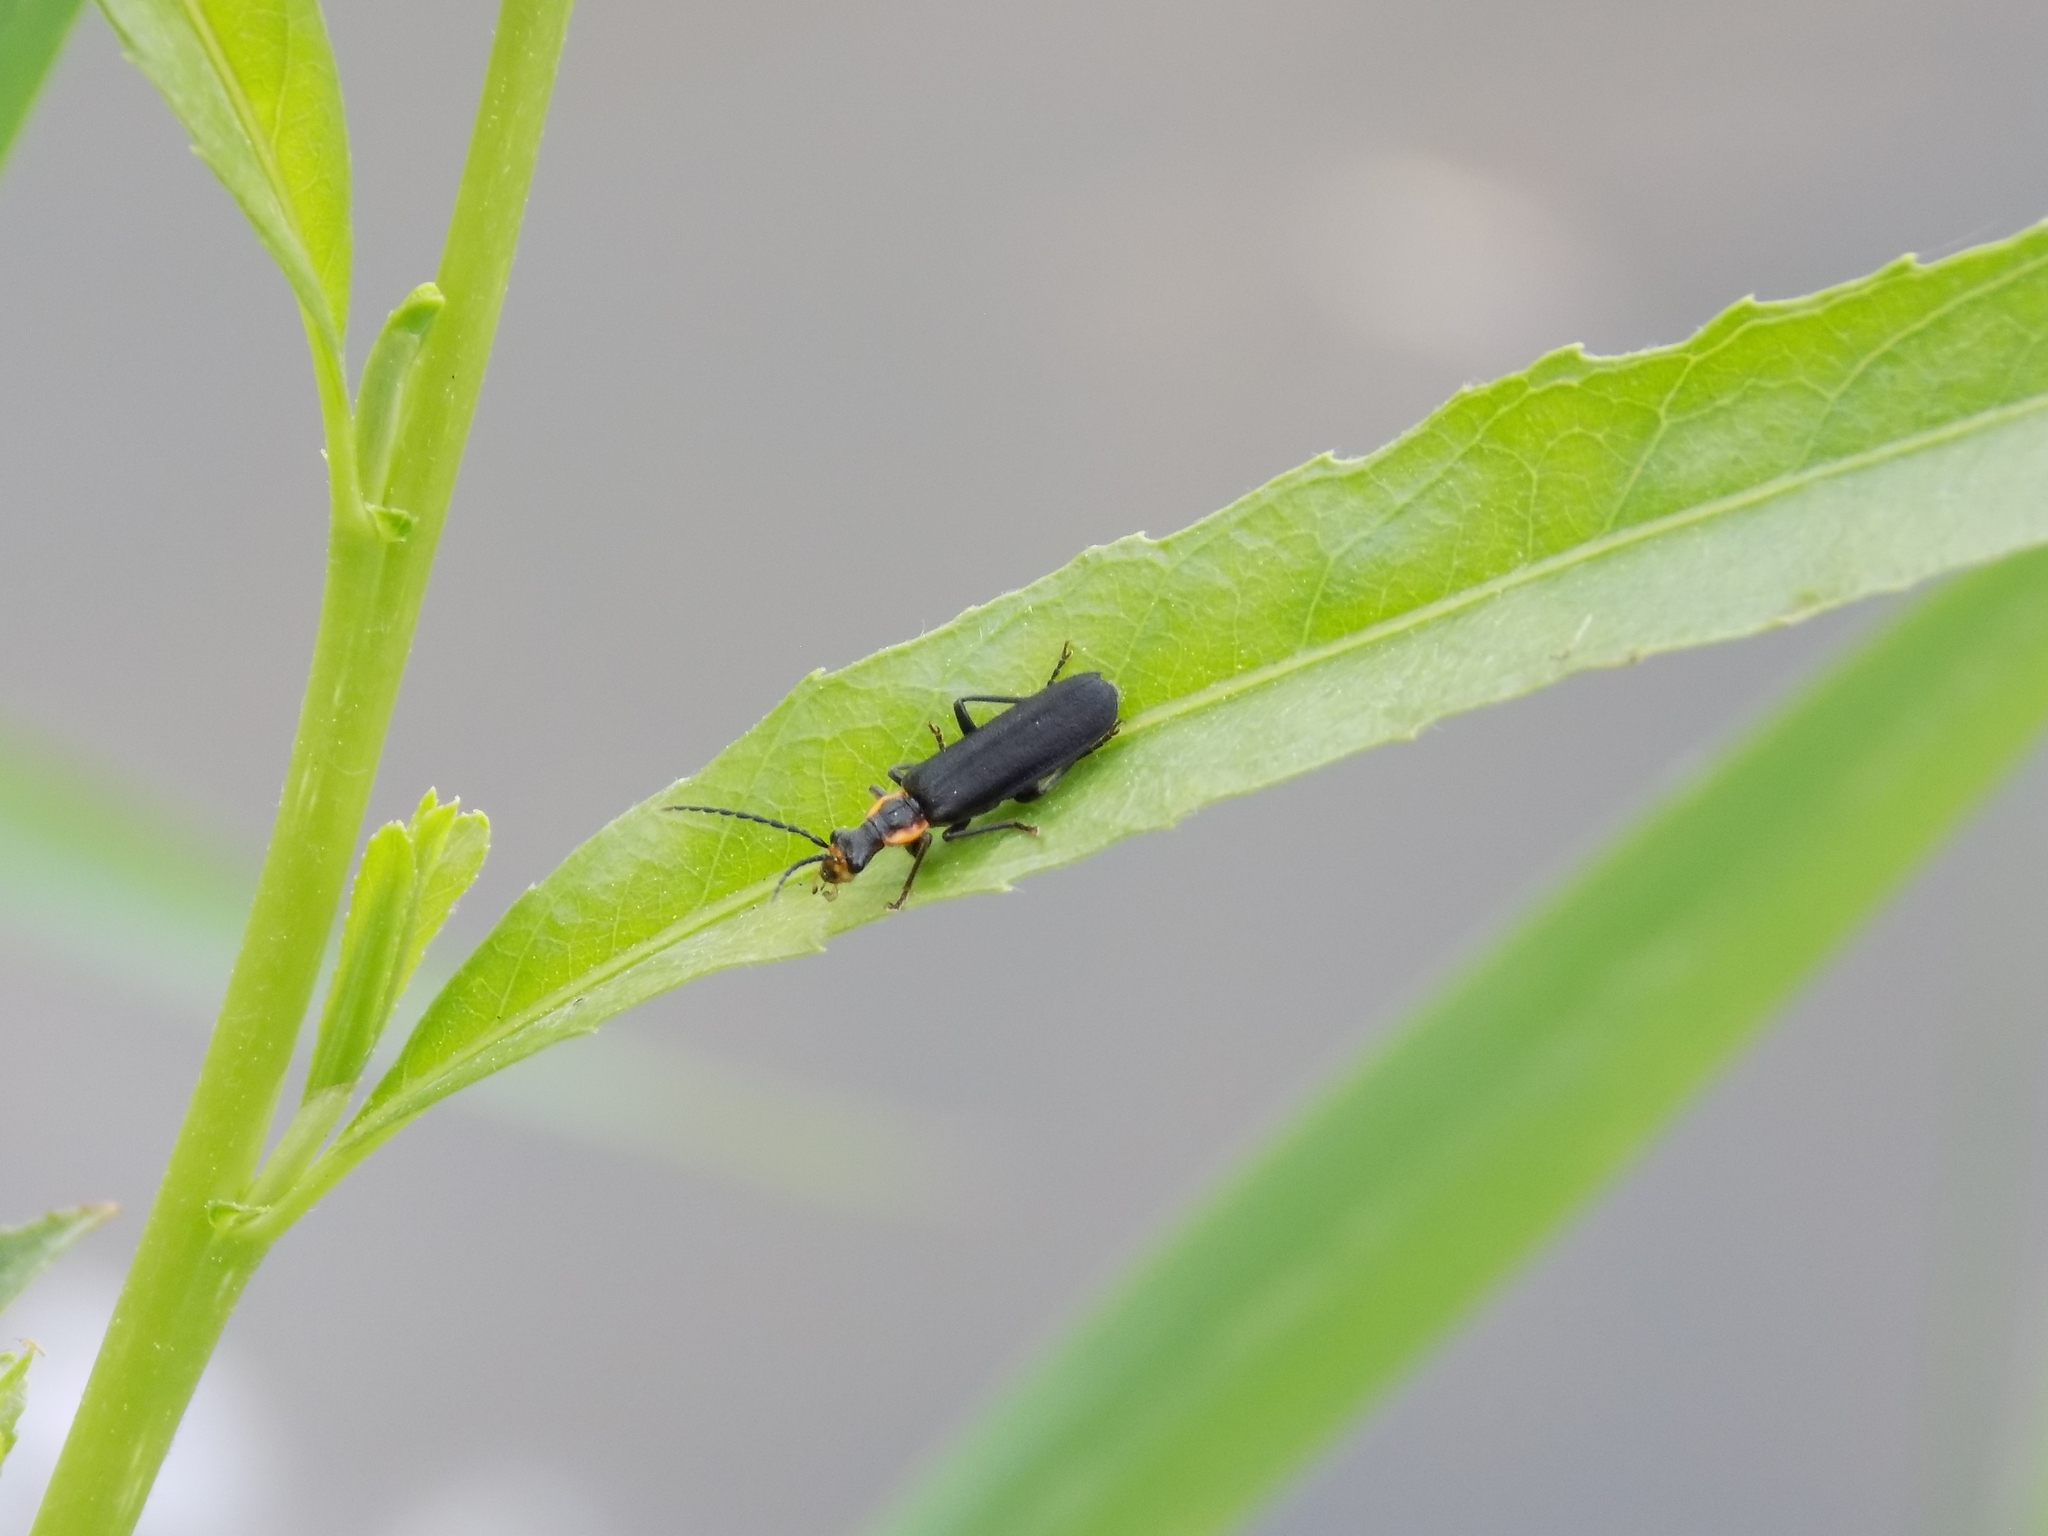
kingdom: Animalia
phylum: Arthropoda
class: Insecta
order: Coleoptera
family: Cantharidae
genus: Podabrus
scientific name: Podabrus rugosulus
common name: Wrinkled soldier beetle
